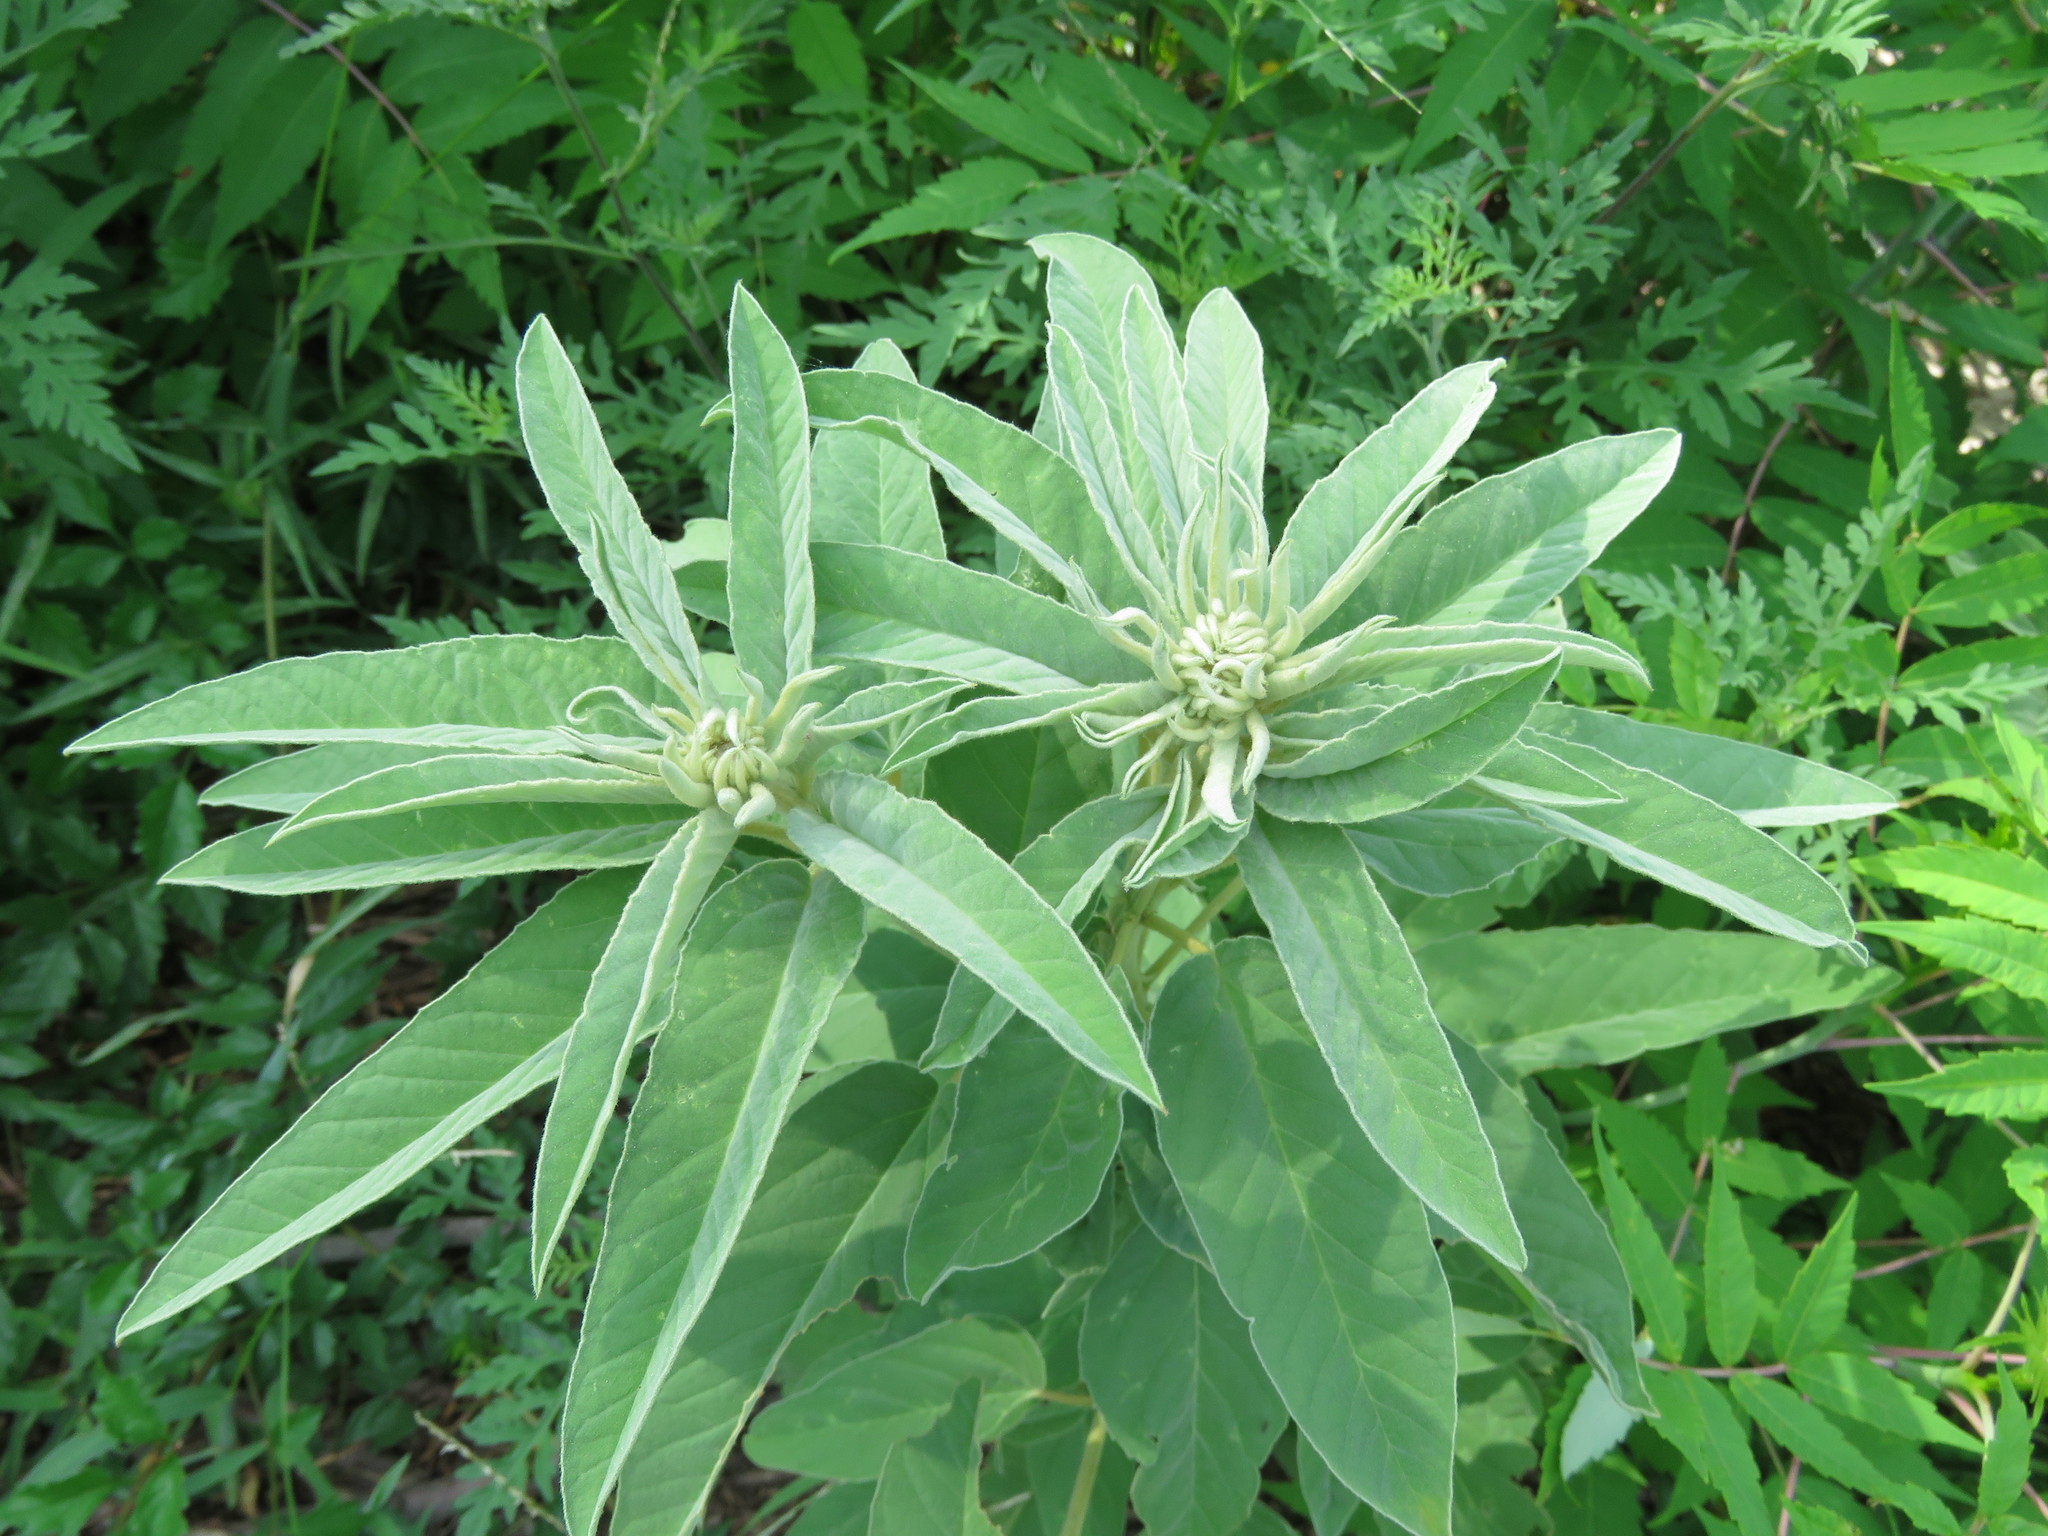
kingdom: Plantae
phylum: Tracheophyta
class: Magnoliopsida
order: Malpighiales
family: Euphorbiaceae
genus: Croton
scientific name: Croton lindheimeri
